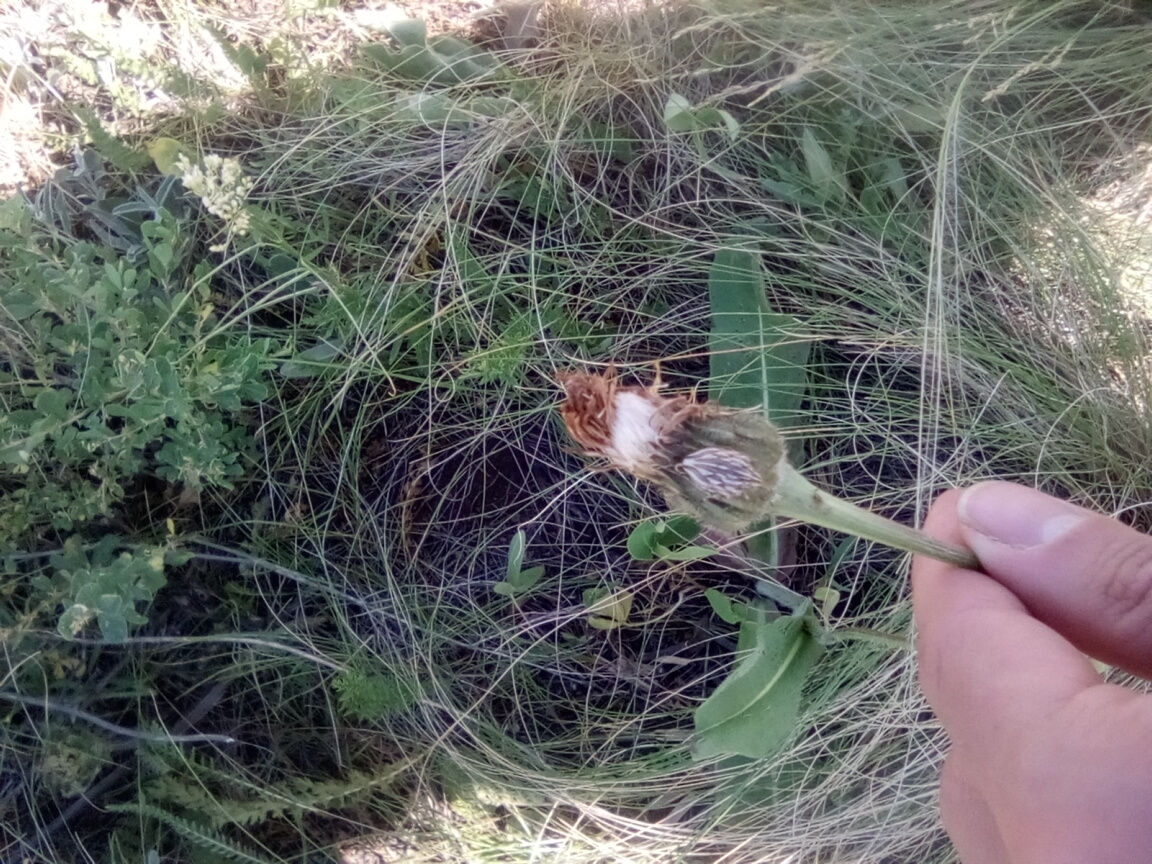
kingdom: Plantae
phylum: Tracheophyta
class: Magnoliopsida
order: Asterales
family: Asteraceae
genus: Trommsdorffia
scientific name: Trommsdorffia maculata
